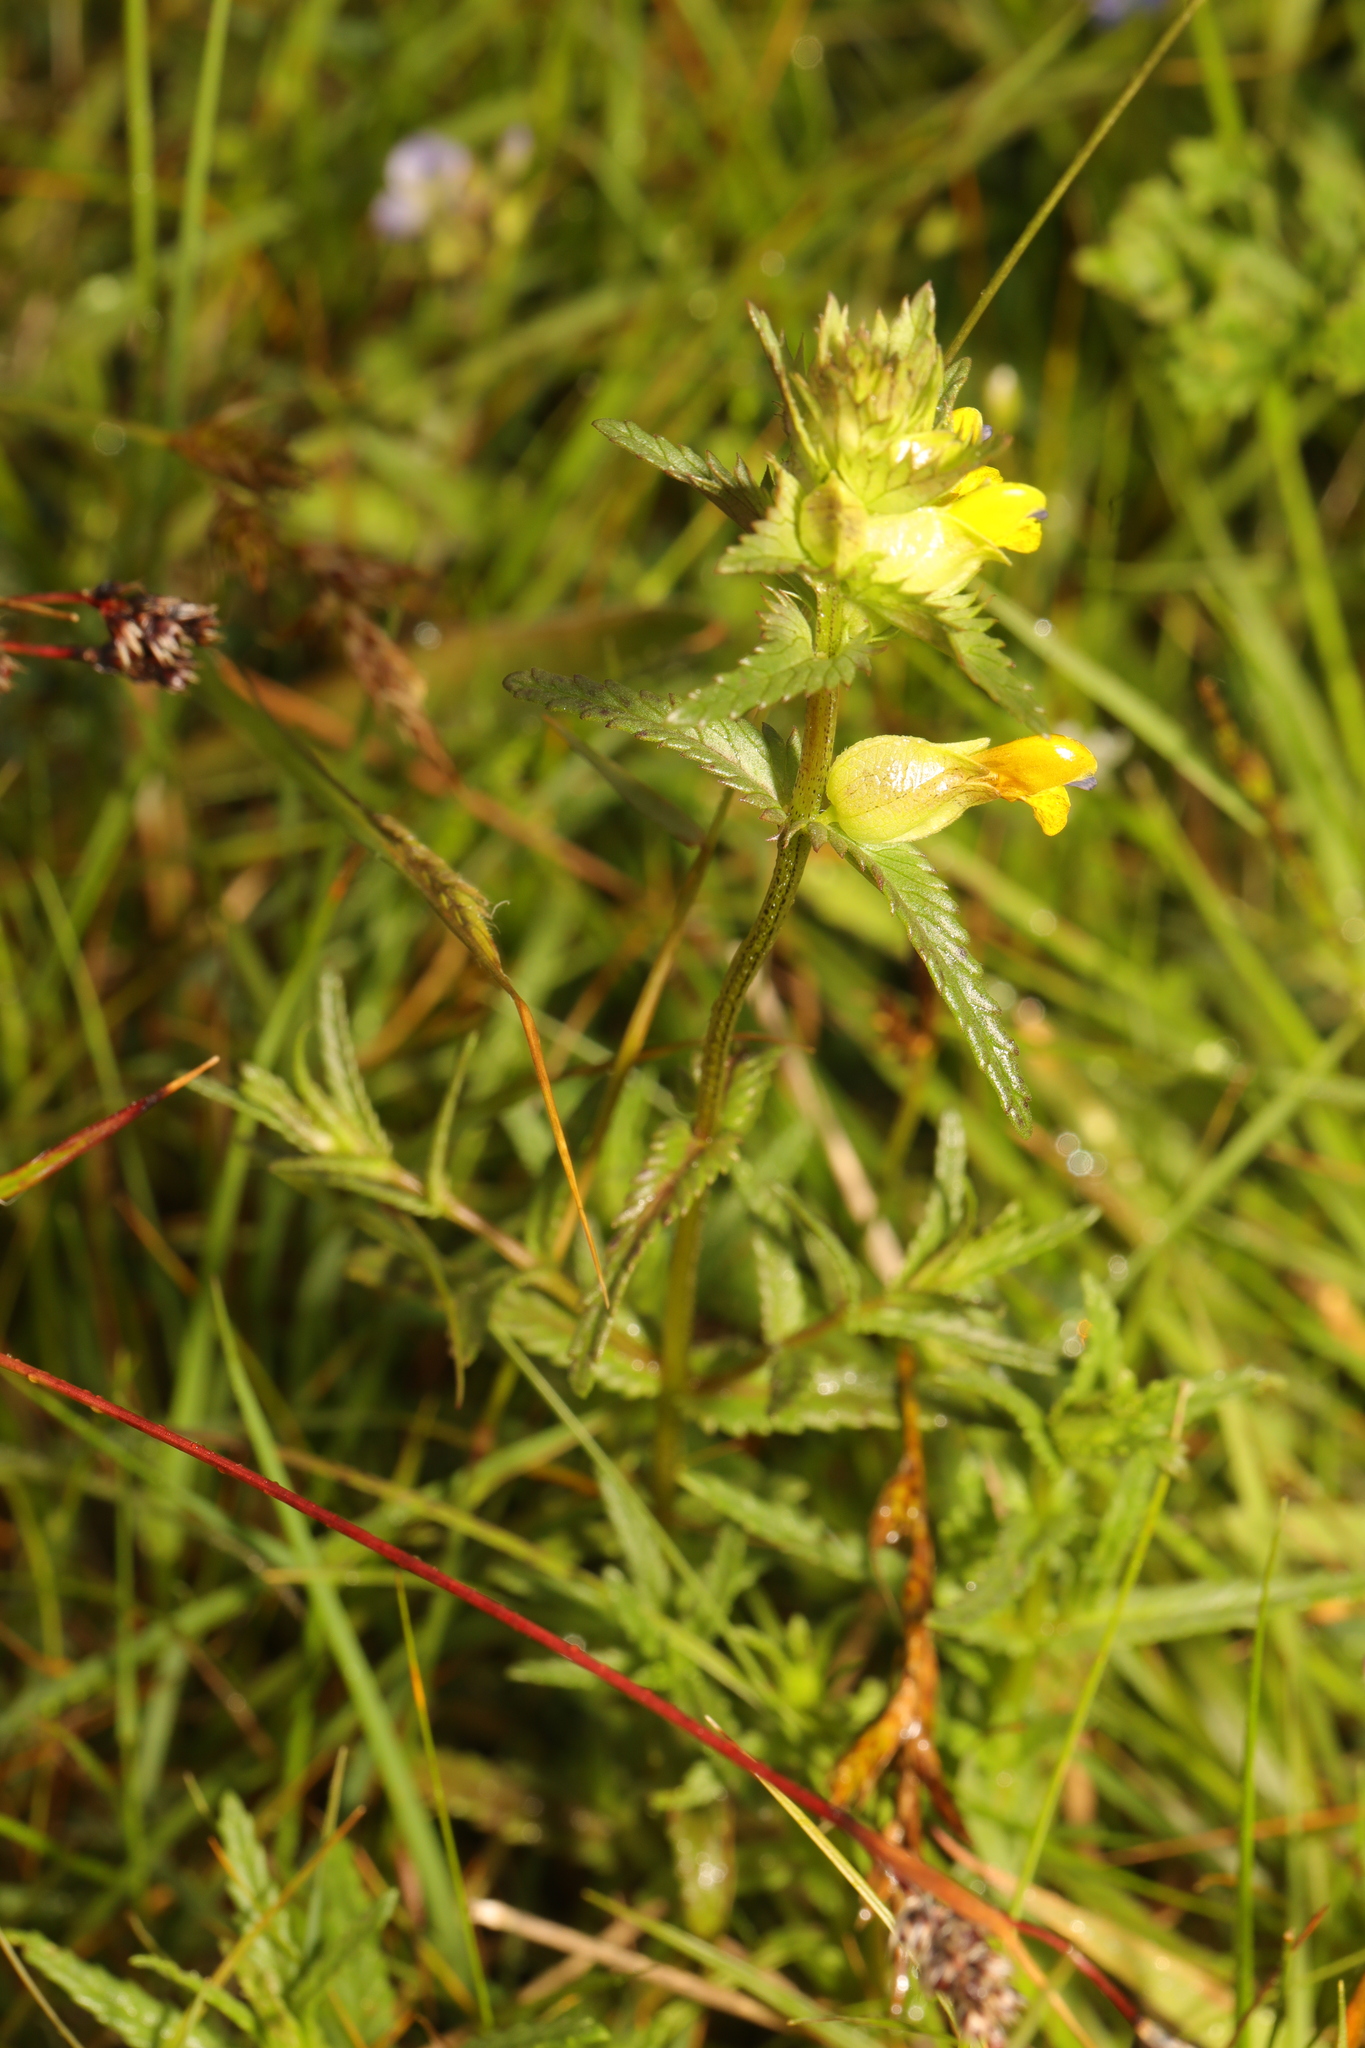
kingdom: Plantae
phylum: Tracheophyta
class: Magnoliopsida
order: Lamiales
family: Orobanchaceae
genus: Rhinanthus
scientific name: Rhinanthus minor
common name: Yellow-rattle
